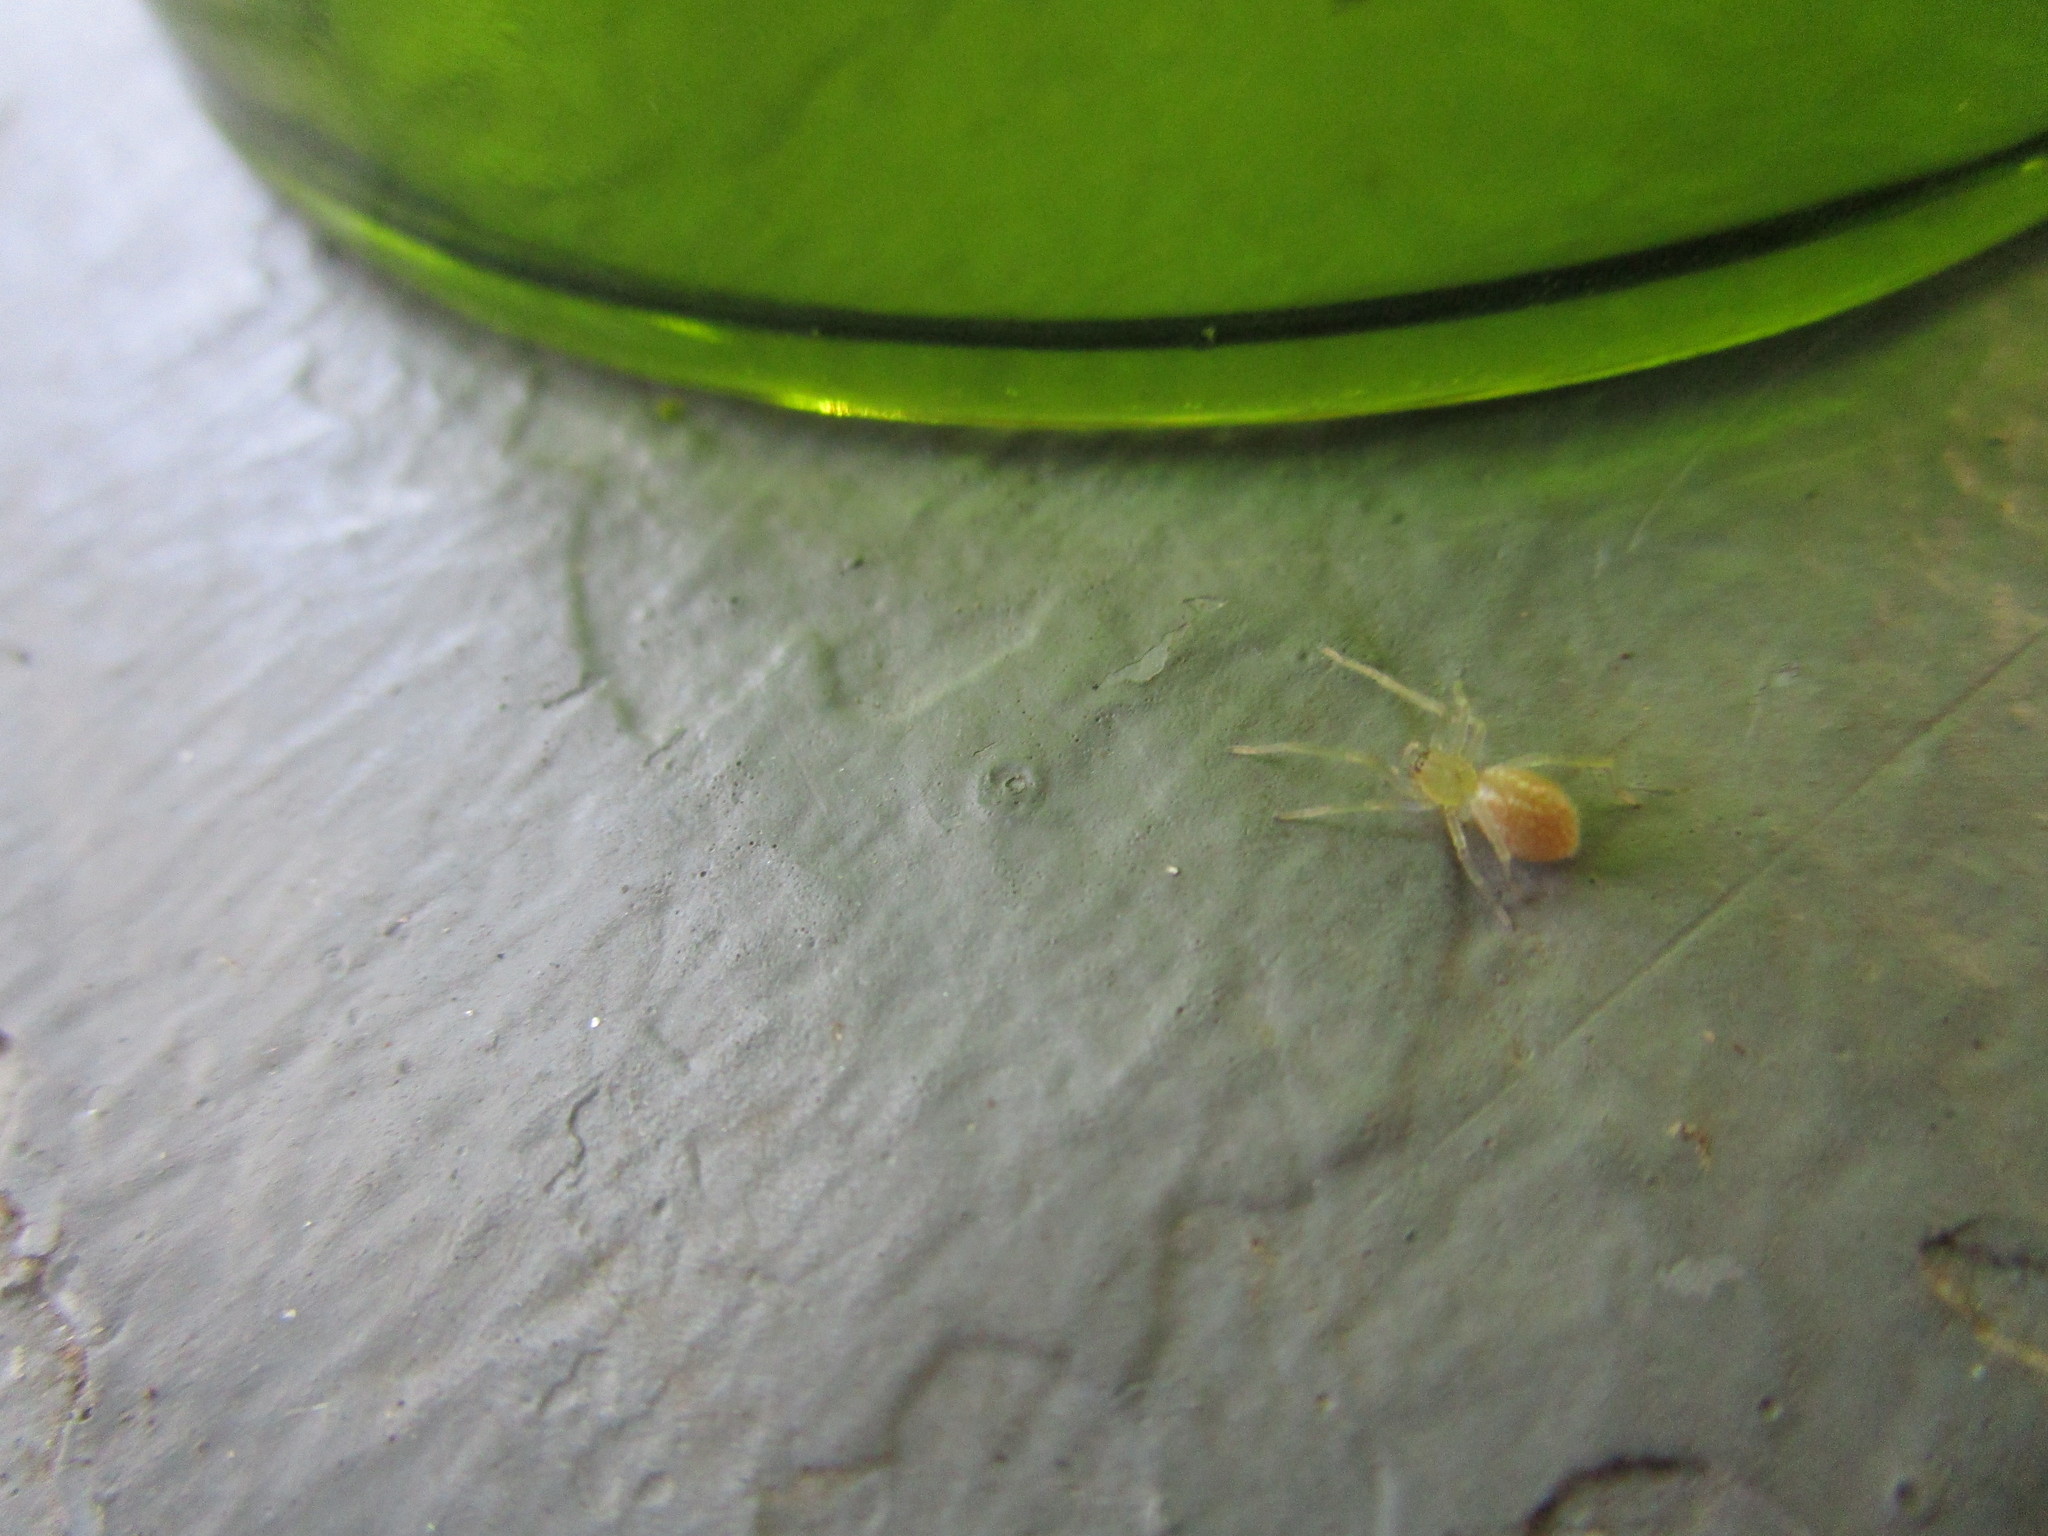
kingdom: Animalia
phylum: Arthropoda
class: Arachnida
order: Araneae
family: Cheiracanthiidae
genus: Cheiracanthium
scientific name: Cheiracanthium mildei
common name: Northern yellow sac spider
